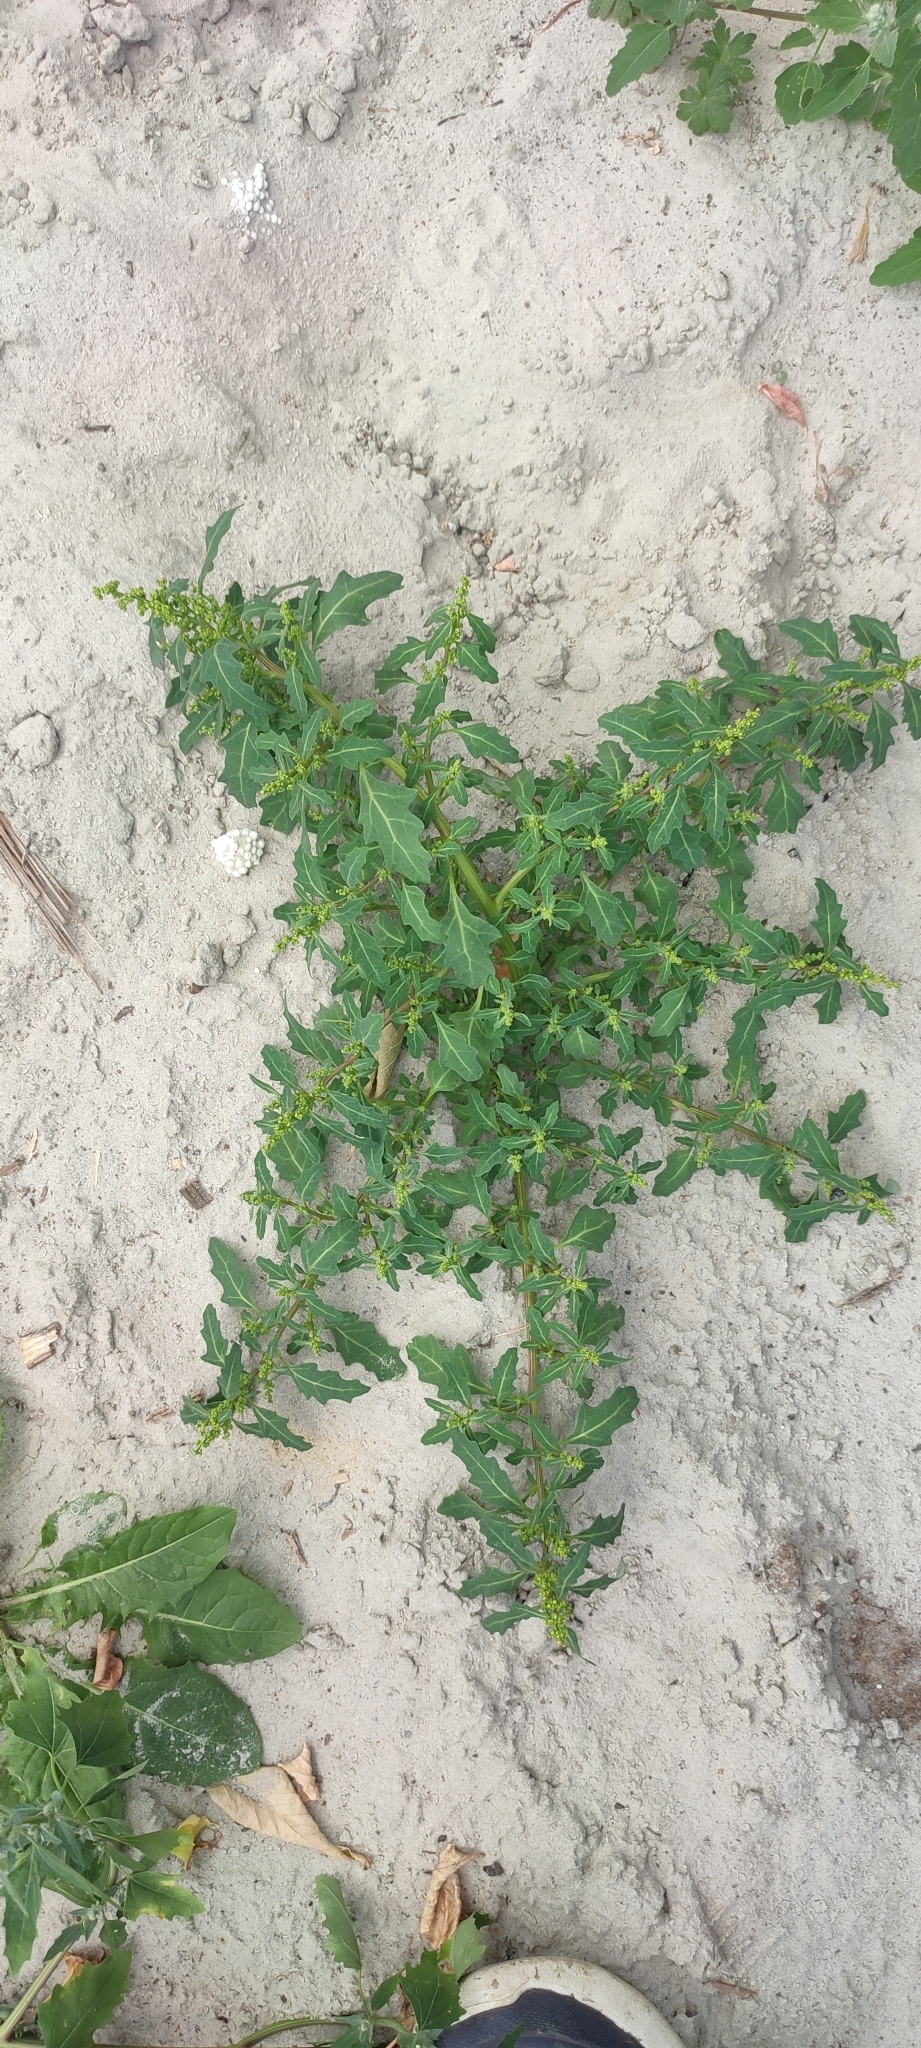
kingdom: Plantae
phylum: Tracheophyta
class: Magnoliopsida
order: Caryophyllales
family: Amaranthaceae
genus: Oxybasis
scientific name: Oxybasis glauca
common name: Glaucous goosefoot
